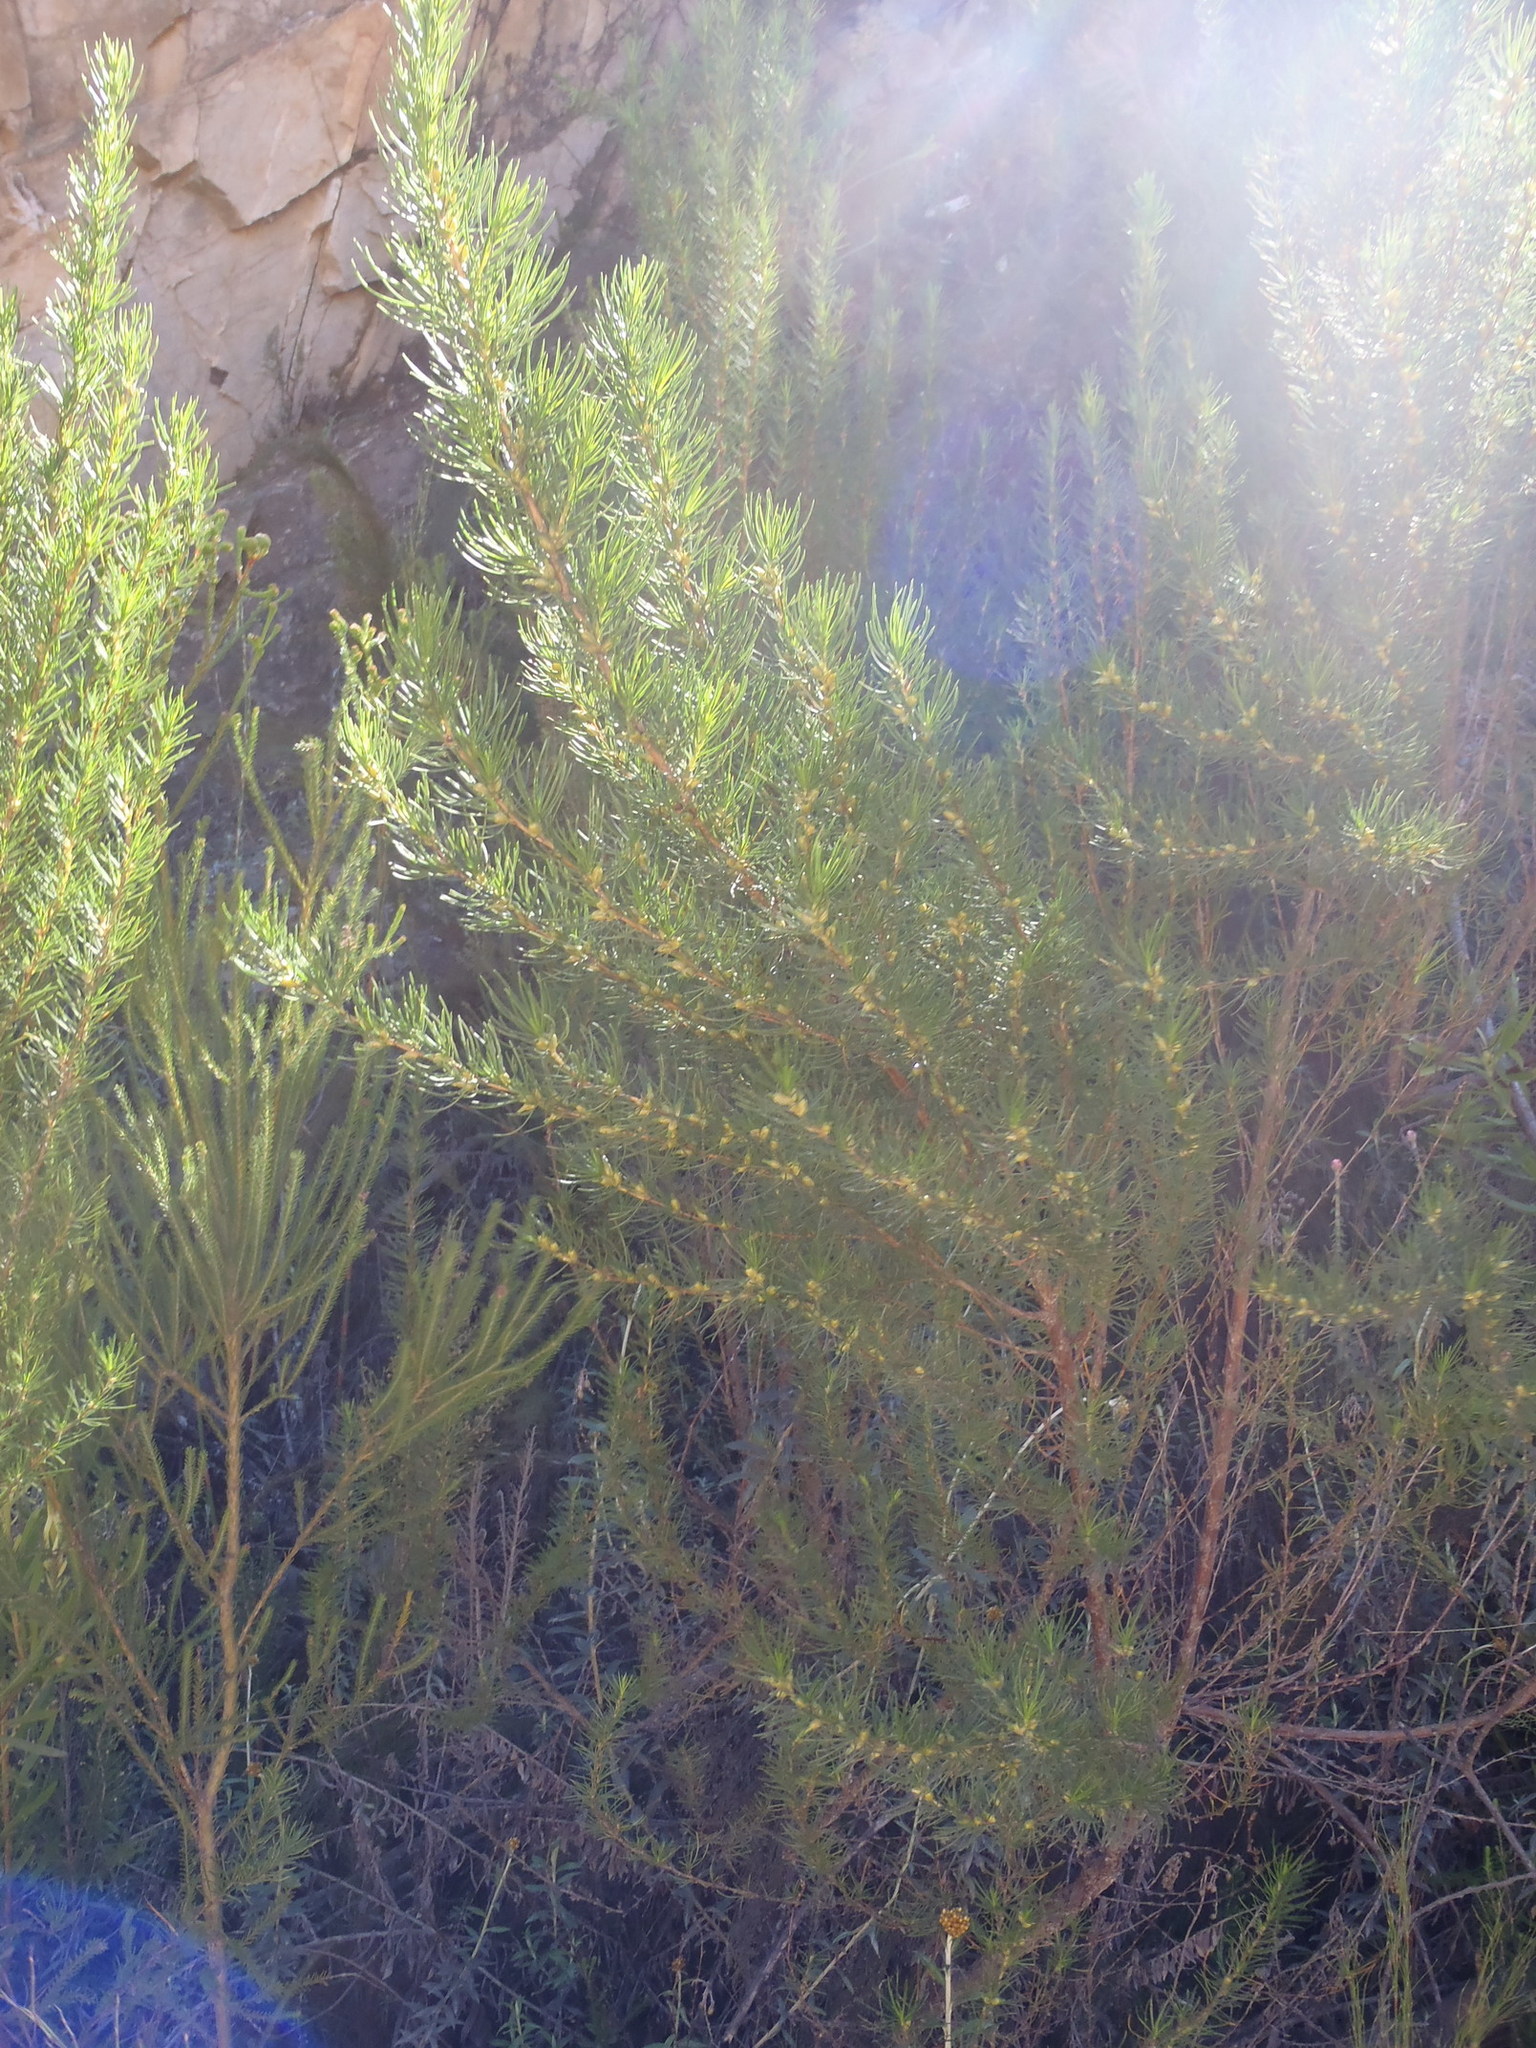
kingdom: Plantae
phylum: Tracheophyta
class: Magnoliopsida
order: Rosales
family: Rosaceae
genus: Cliffortia
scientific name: Cliffortia burchellii
